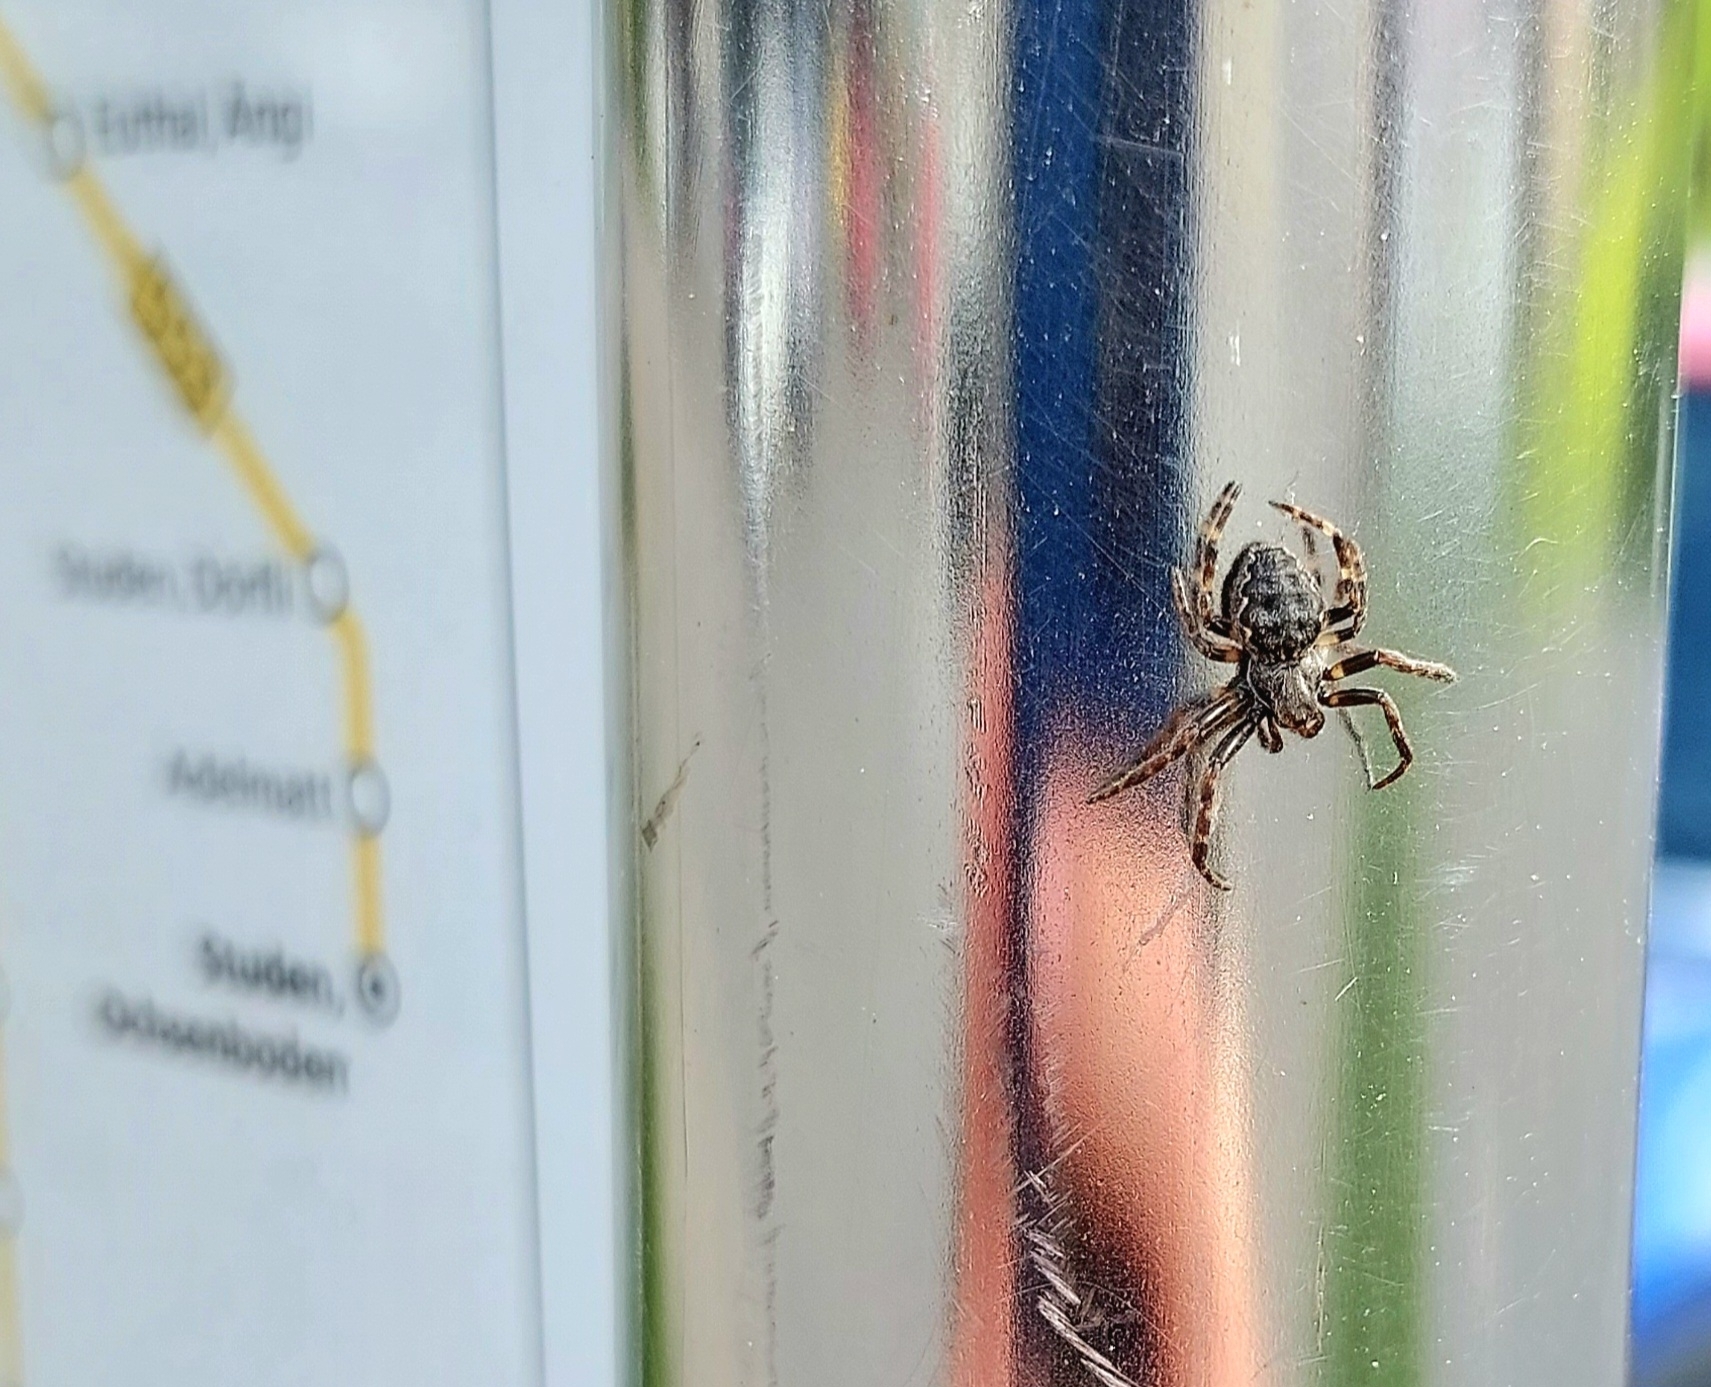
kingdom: Animalia
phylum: Arthropoda
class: Arachnida
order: Araneae
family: Araneidae
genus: Nuctenea
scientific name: Nuctenea umbratica
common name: Toad spider
